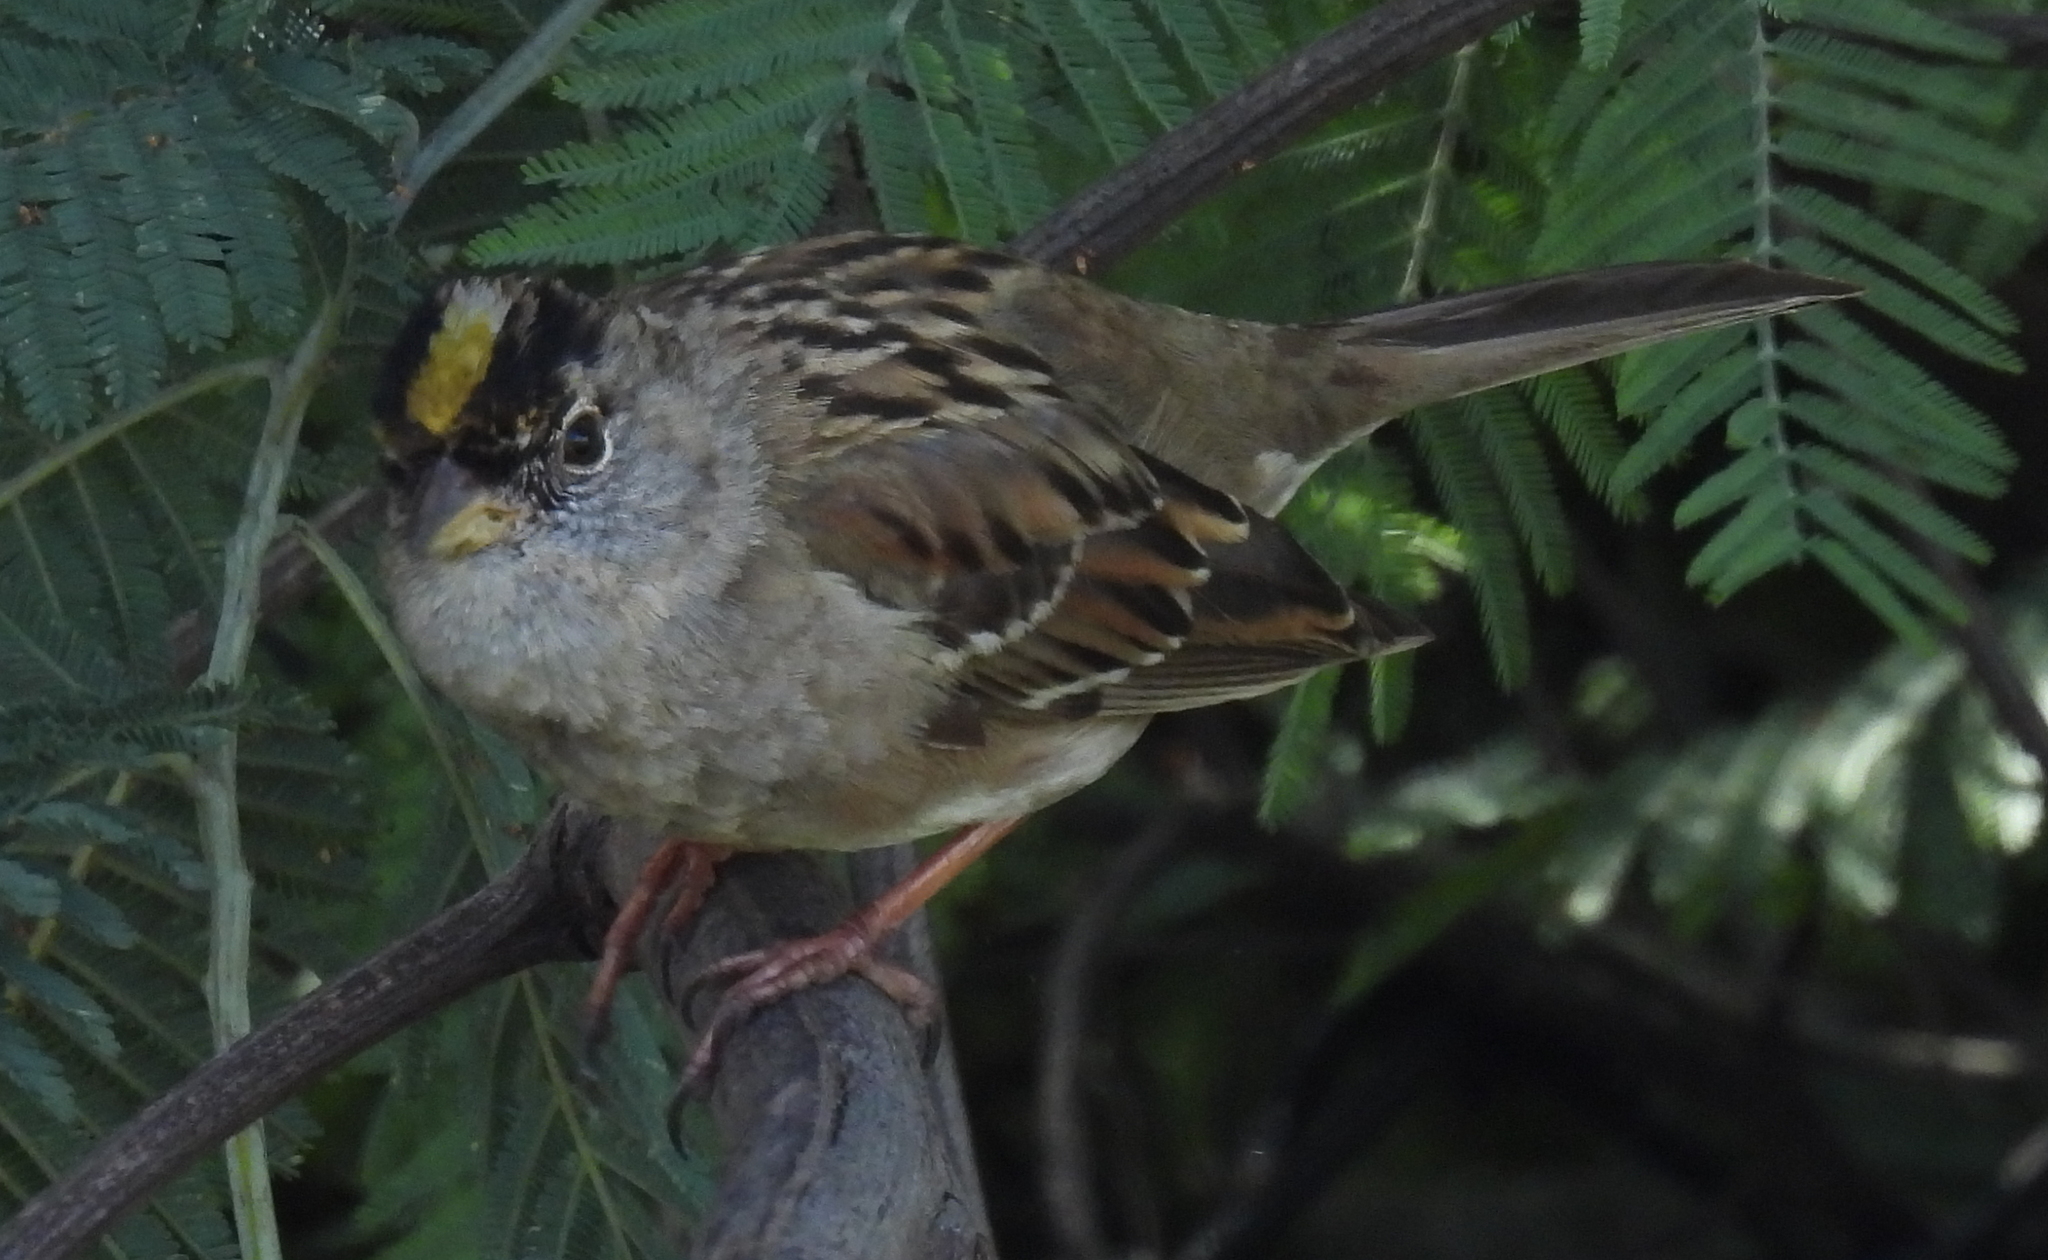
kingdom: Animalia
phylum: Chordata
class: Aves
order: Passeriformes
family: Passerellidae
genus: Zonotrichia
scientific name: Zonotrichia atricapilla
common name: Golden-crowned sparrow
